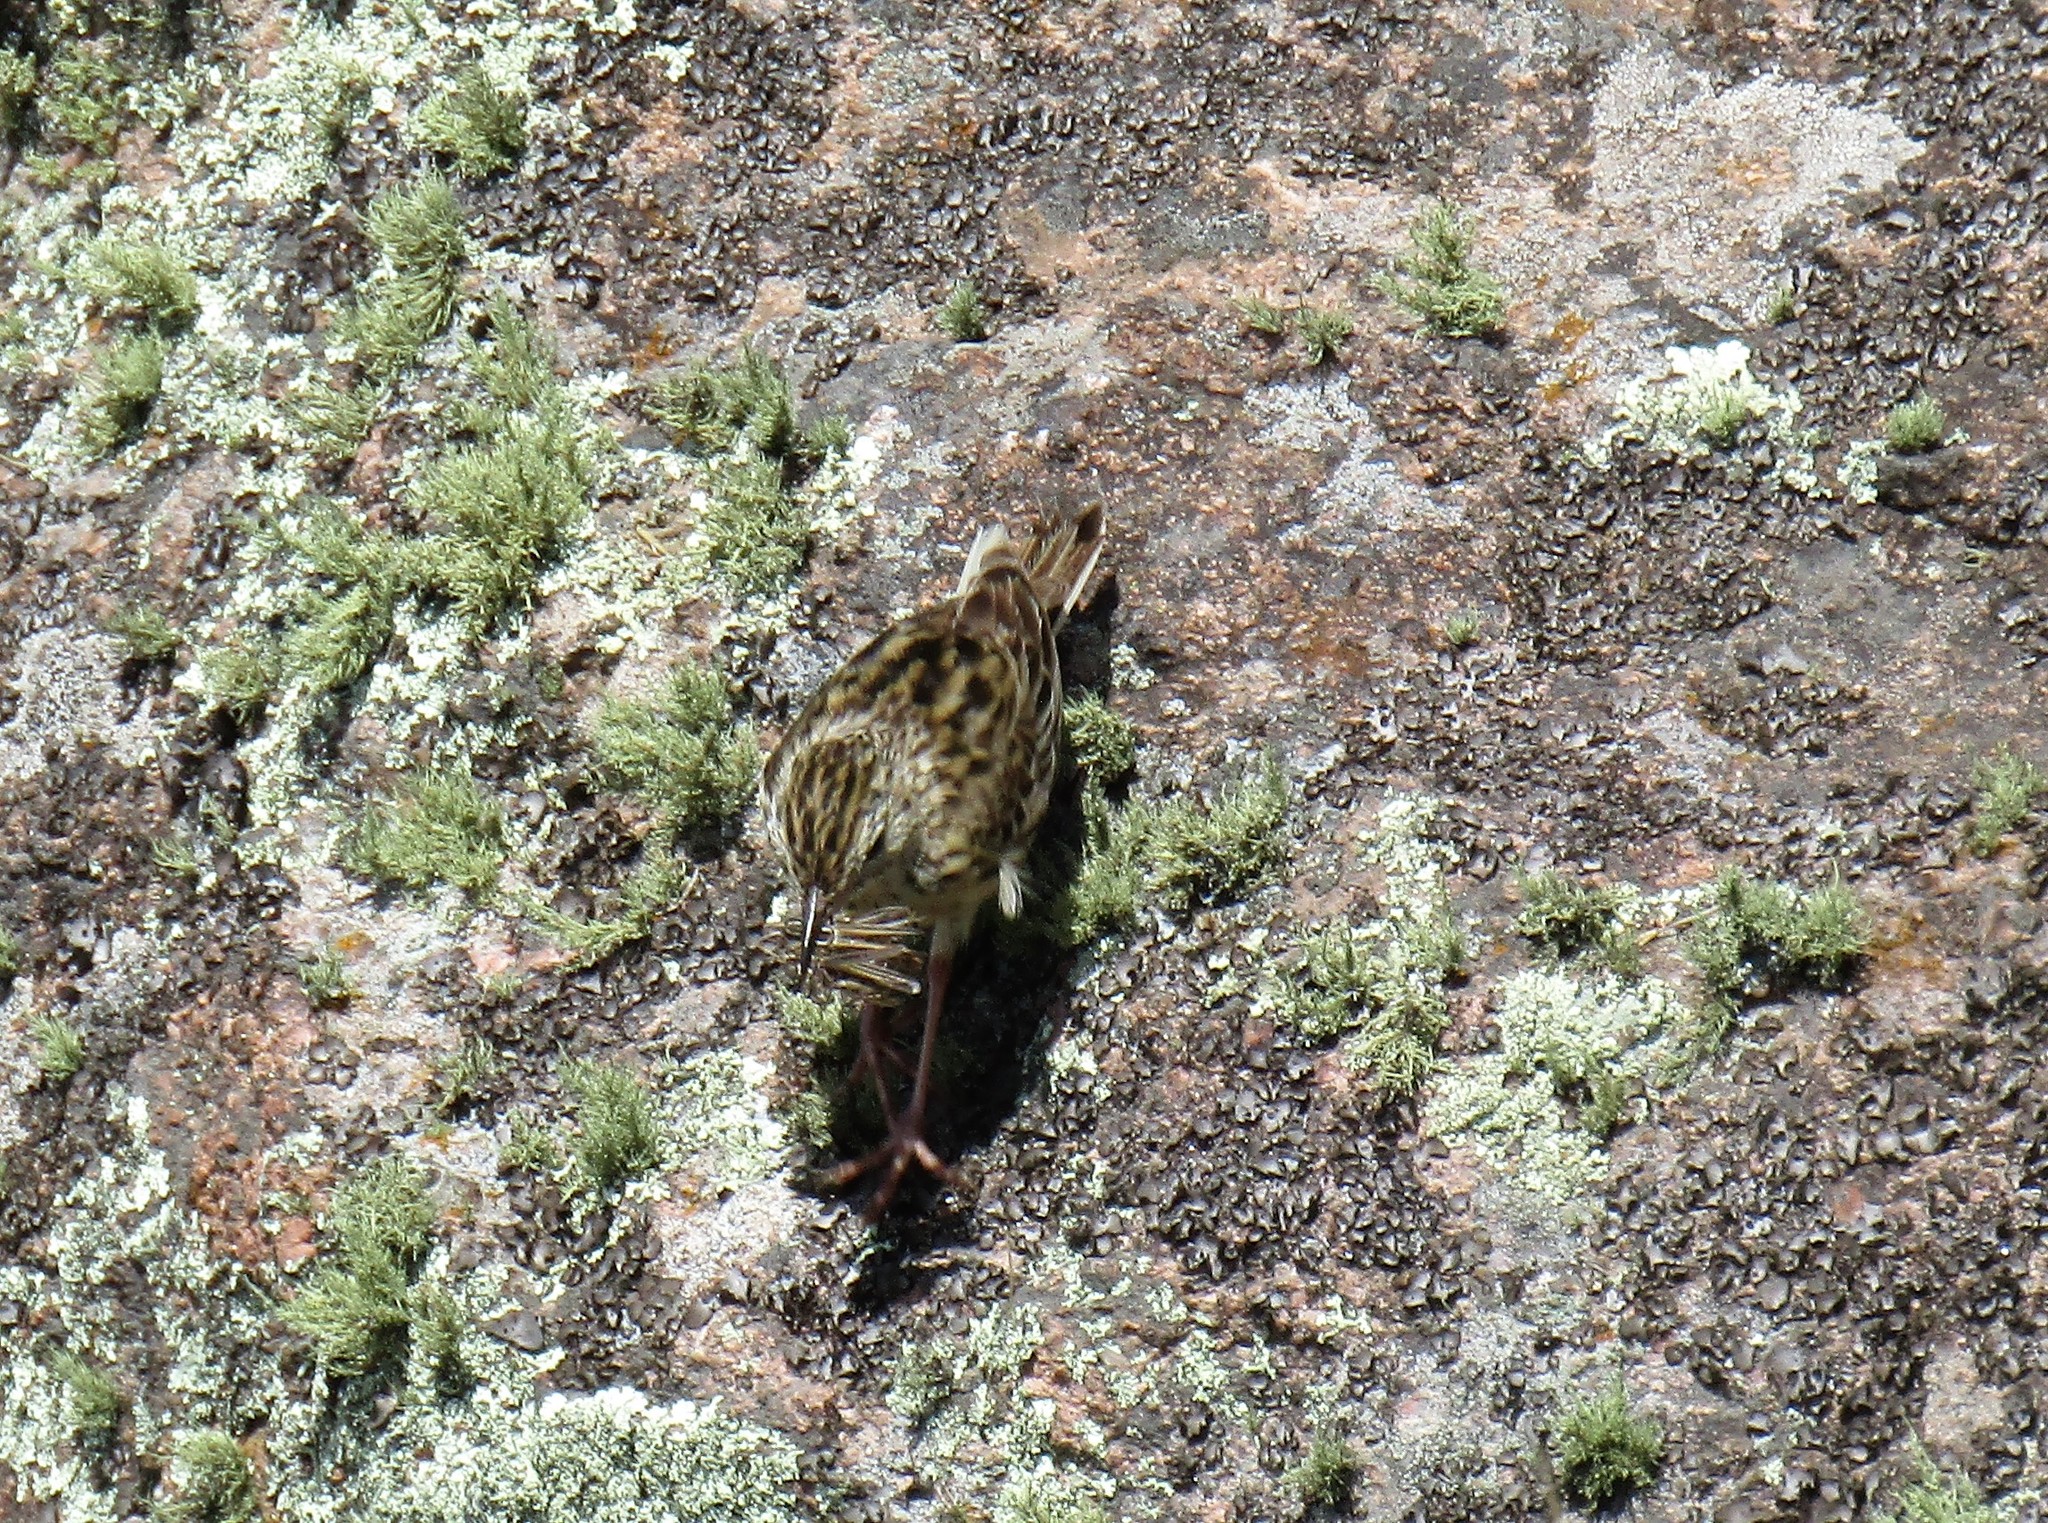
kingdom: Animalia
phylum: Chordata
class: Aves
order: Passeriformes
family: Motacillidae
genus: Anthus
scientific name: Anthus hellmayri
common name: Hellmayr's pipit
